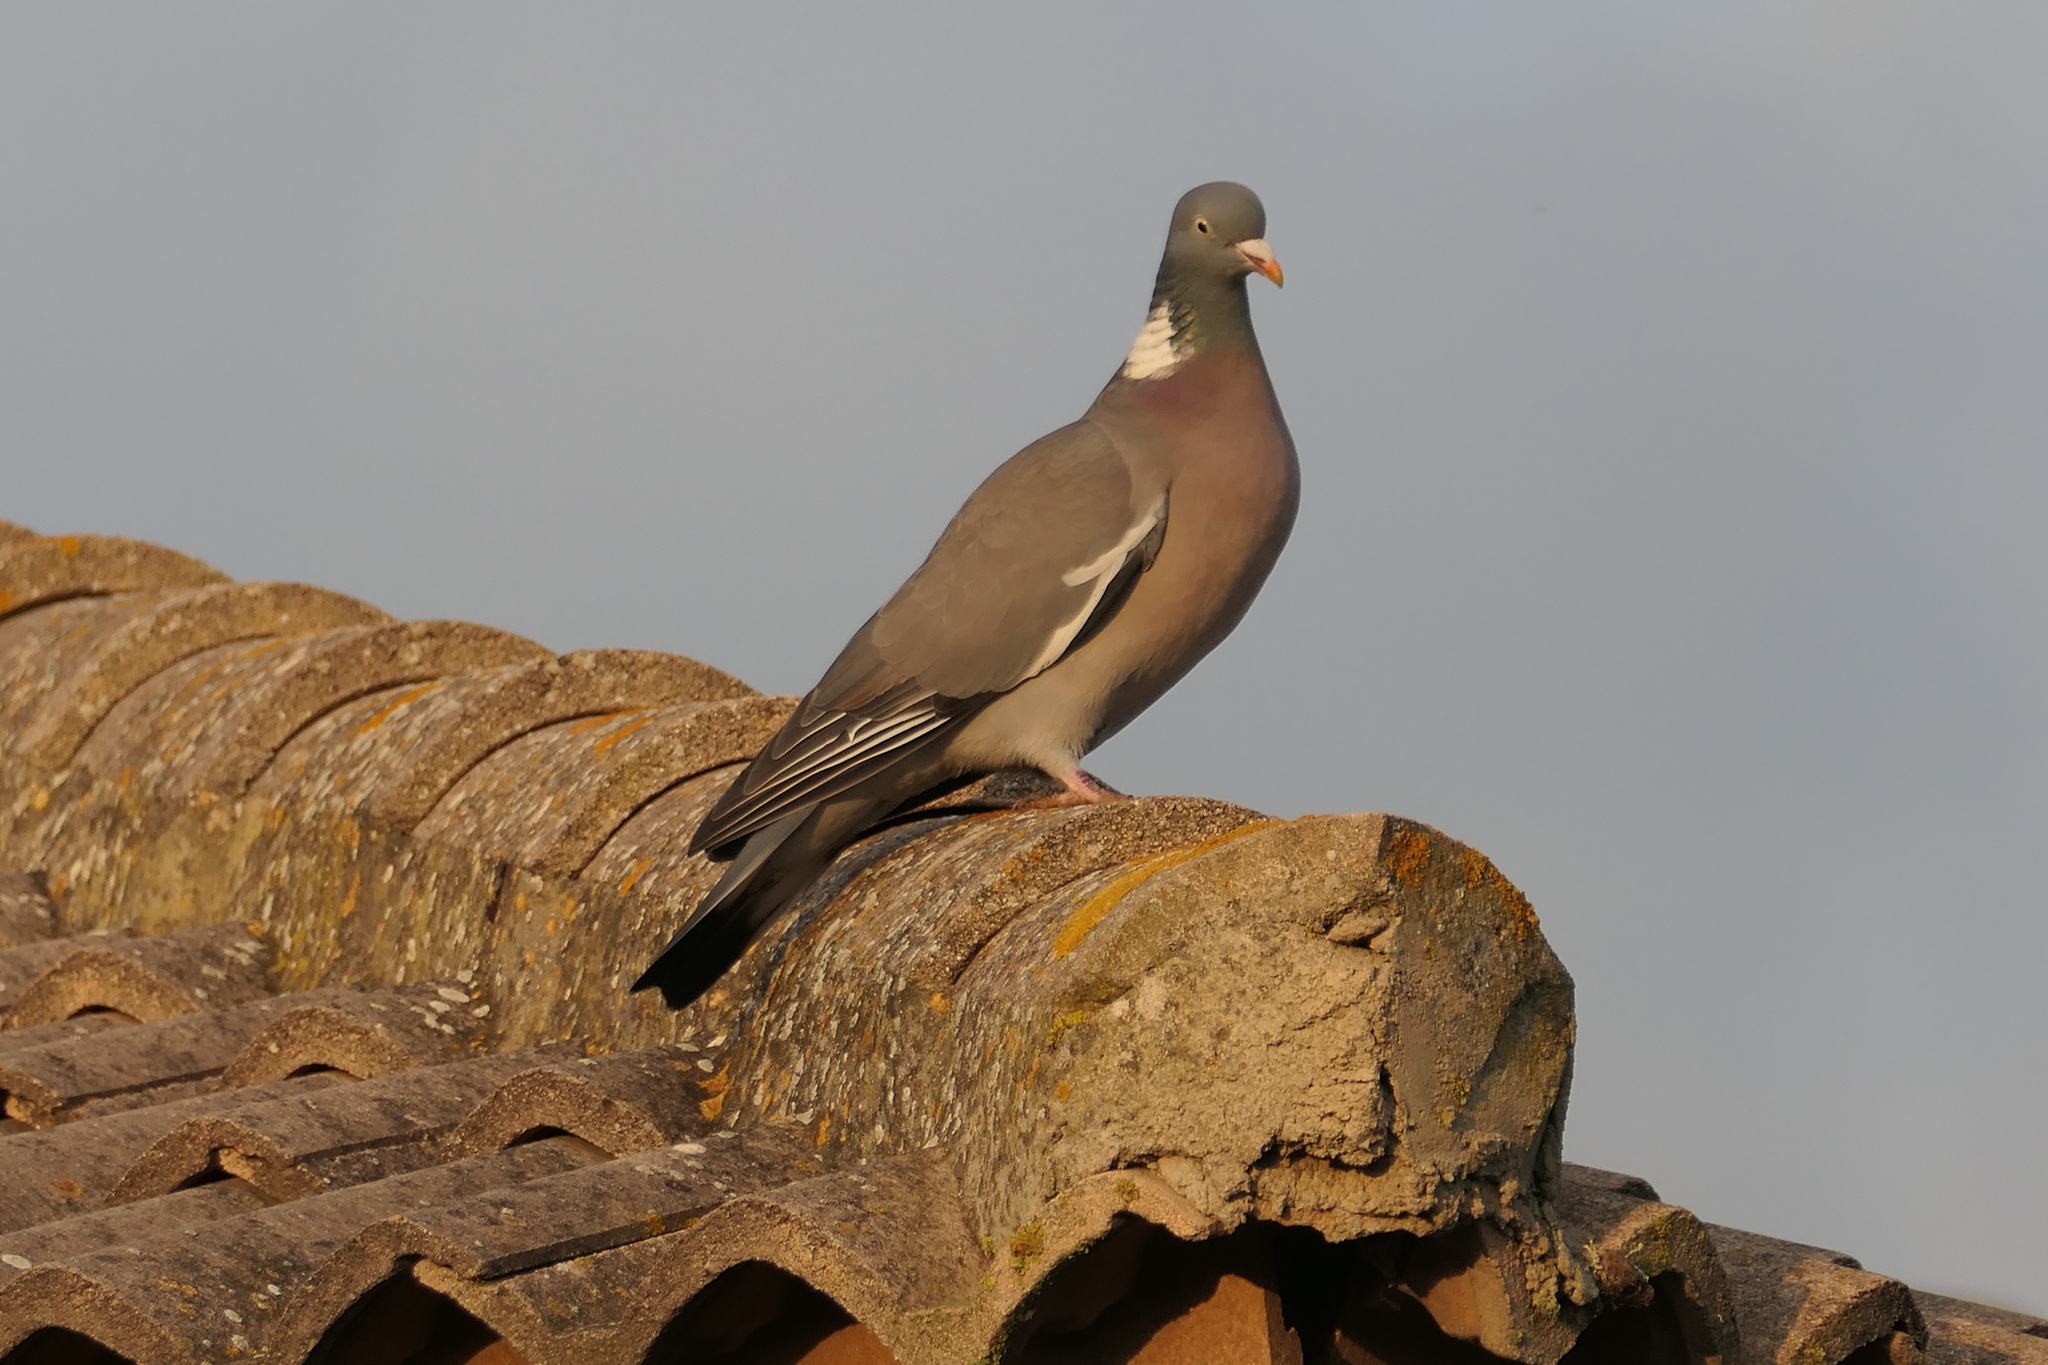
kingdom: Animalia
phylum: Chordata
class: Aves
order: Columbiformes
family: Columbidae
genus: Columba
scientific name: Columba palumbus
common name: Common wood pigeon
